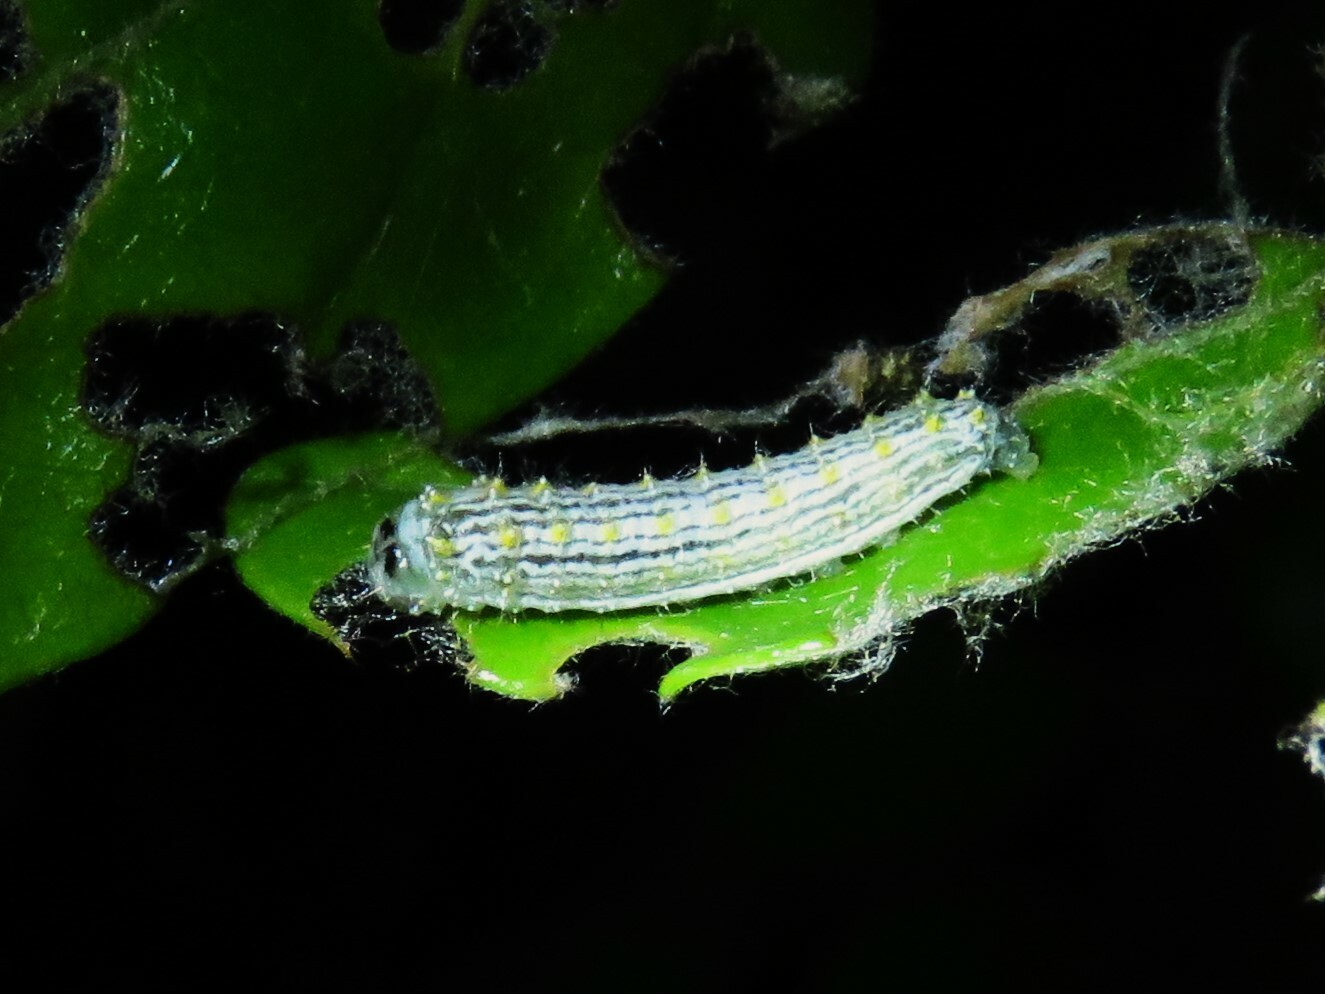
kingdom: Animalia
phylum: Arthropoda
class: Insecta
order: Lepidoptera
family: Lacturidae
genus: Lactura
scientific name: Lactura
